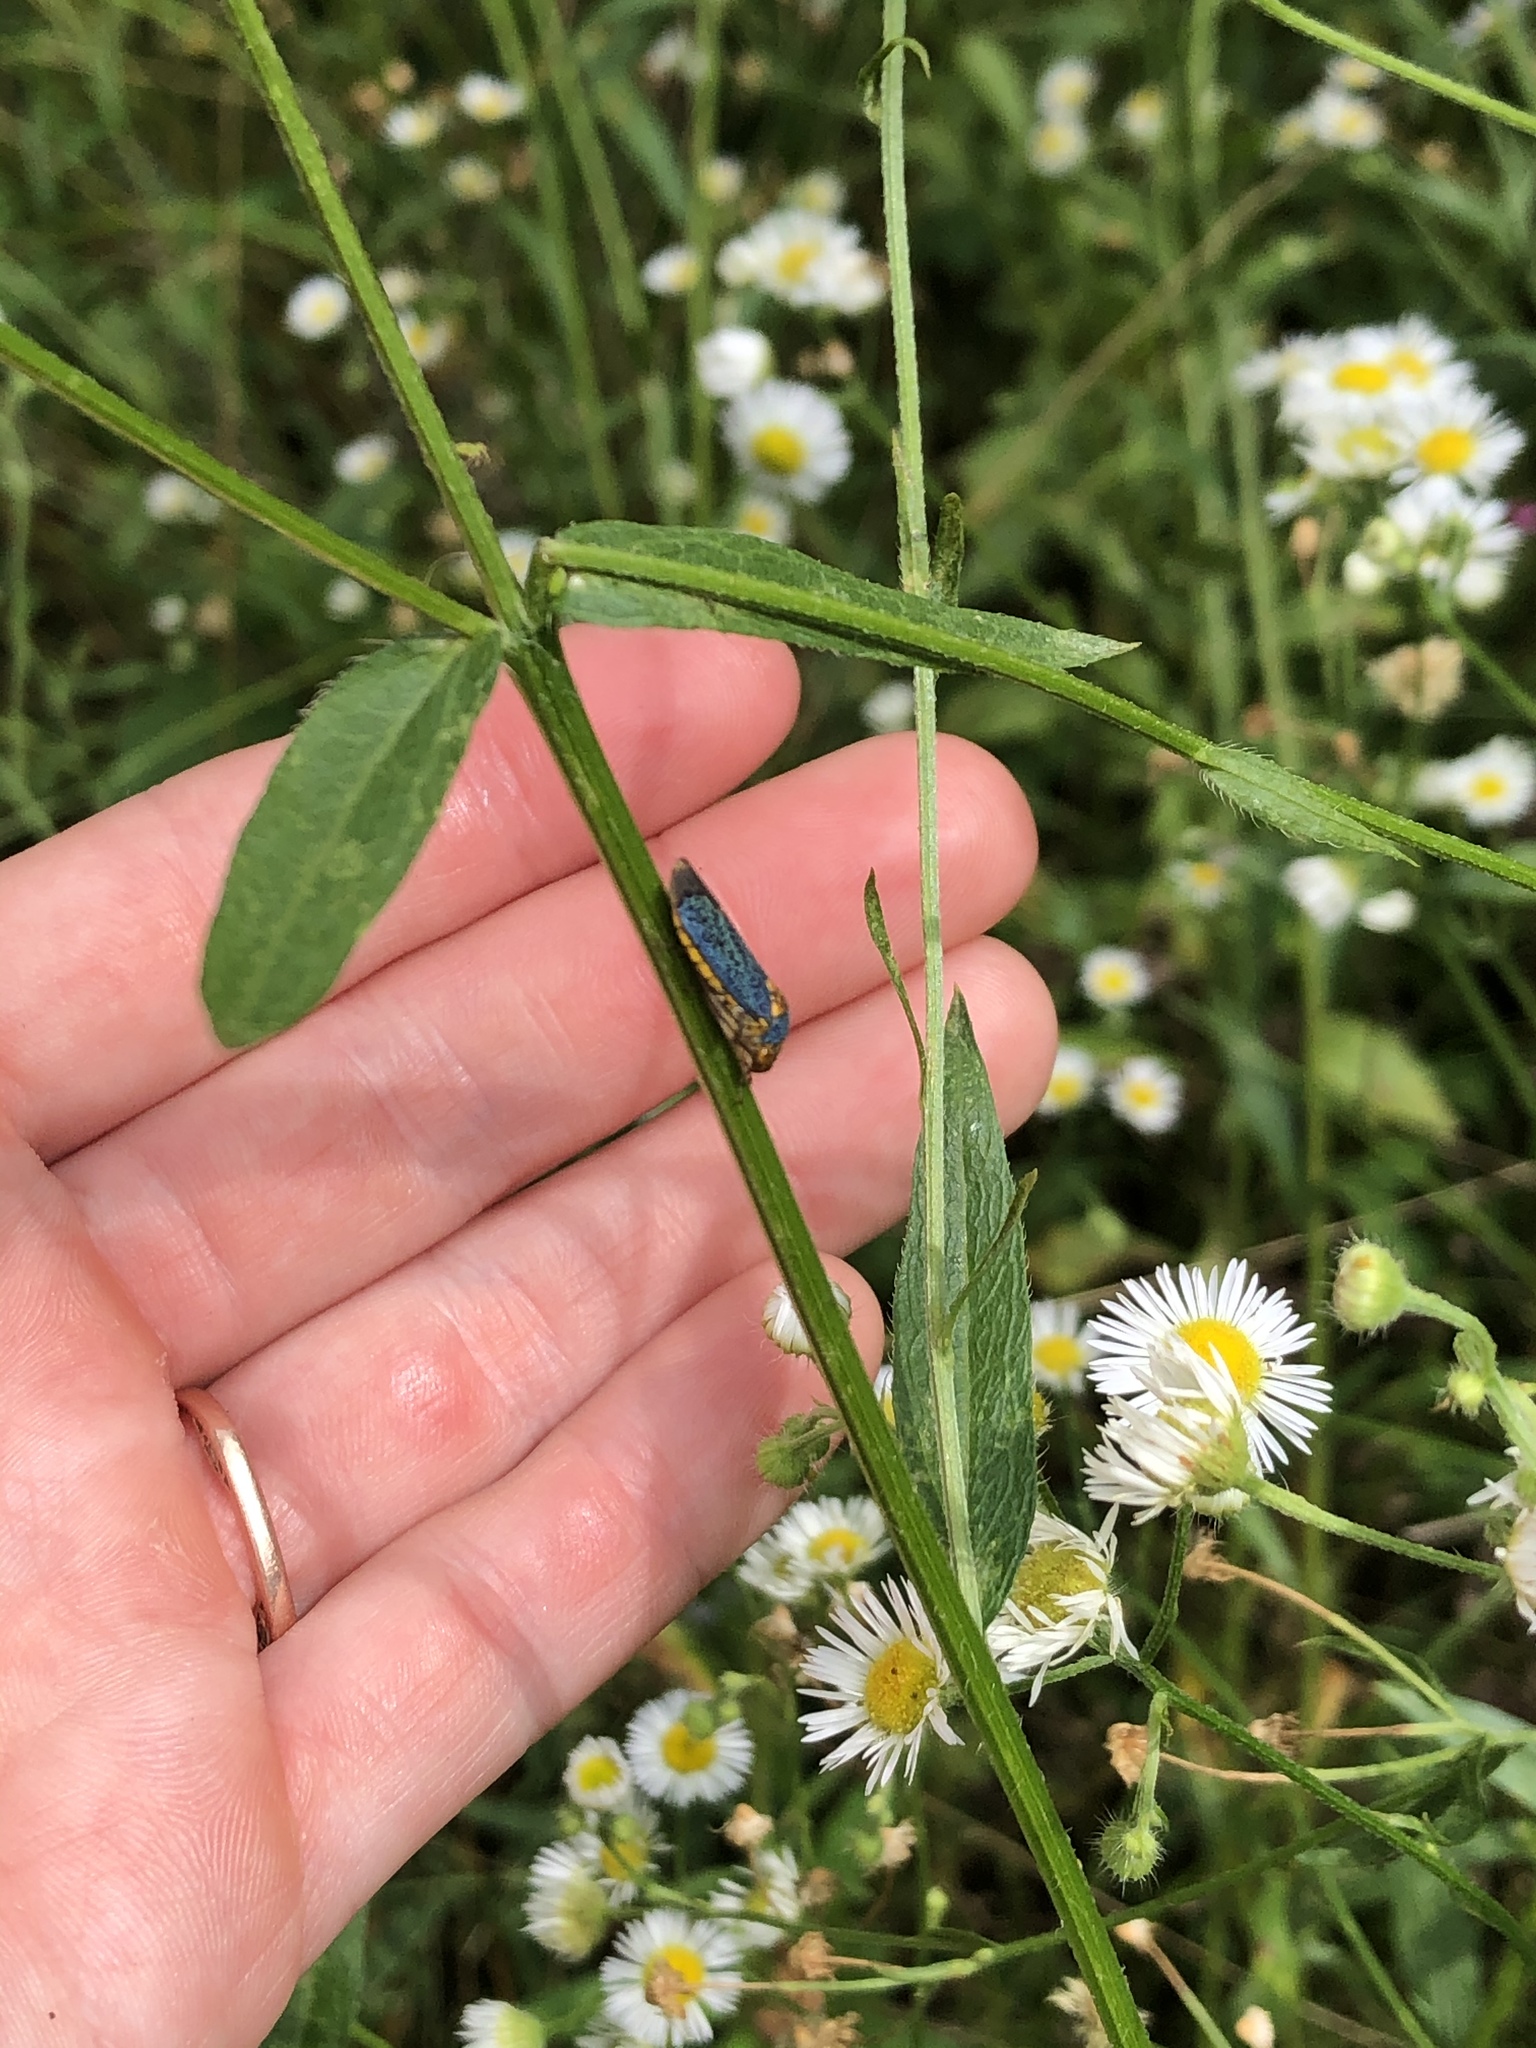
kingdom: Animalia
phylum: Arthropoda
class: Insecta
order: Hemiptera
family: Cicadellidae
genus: Oncometopia
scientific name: Oncometopia orbona
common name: Broad-headed sharpshooter
